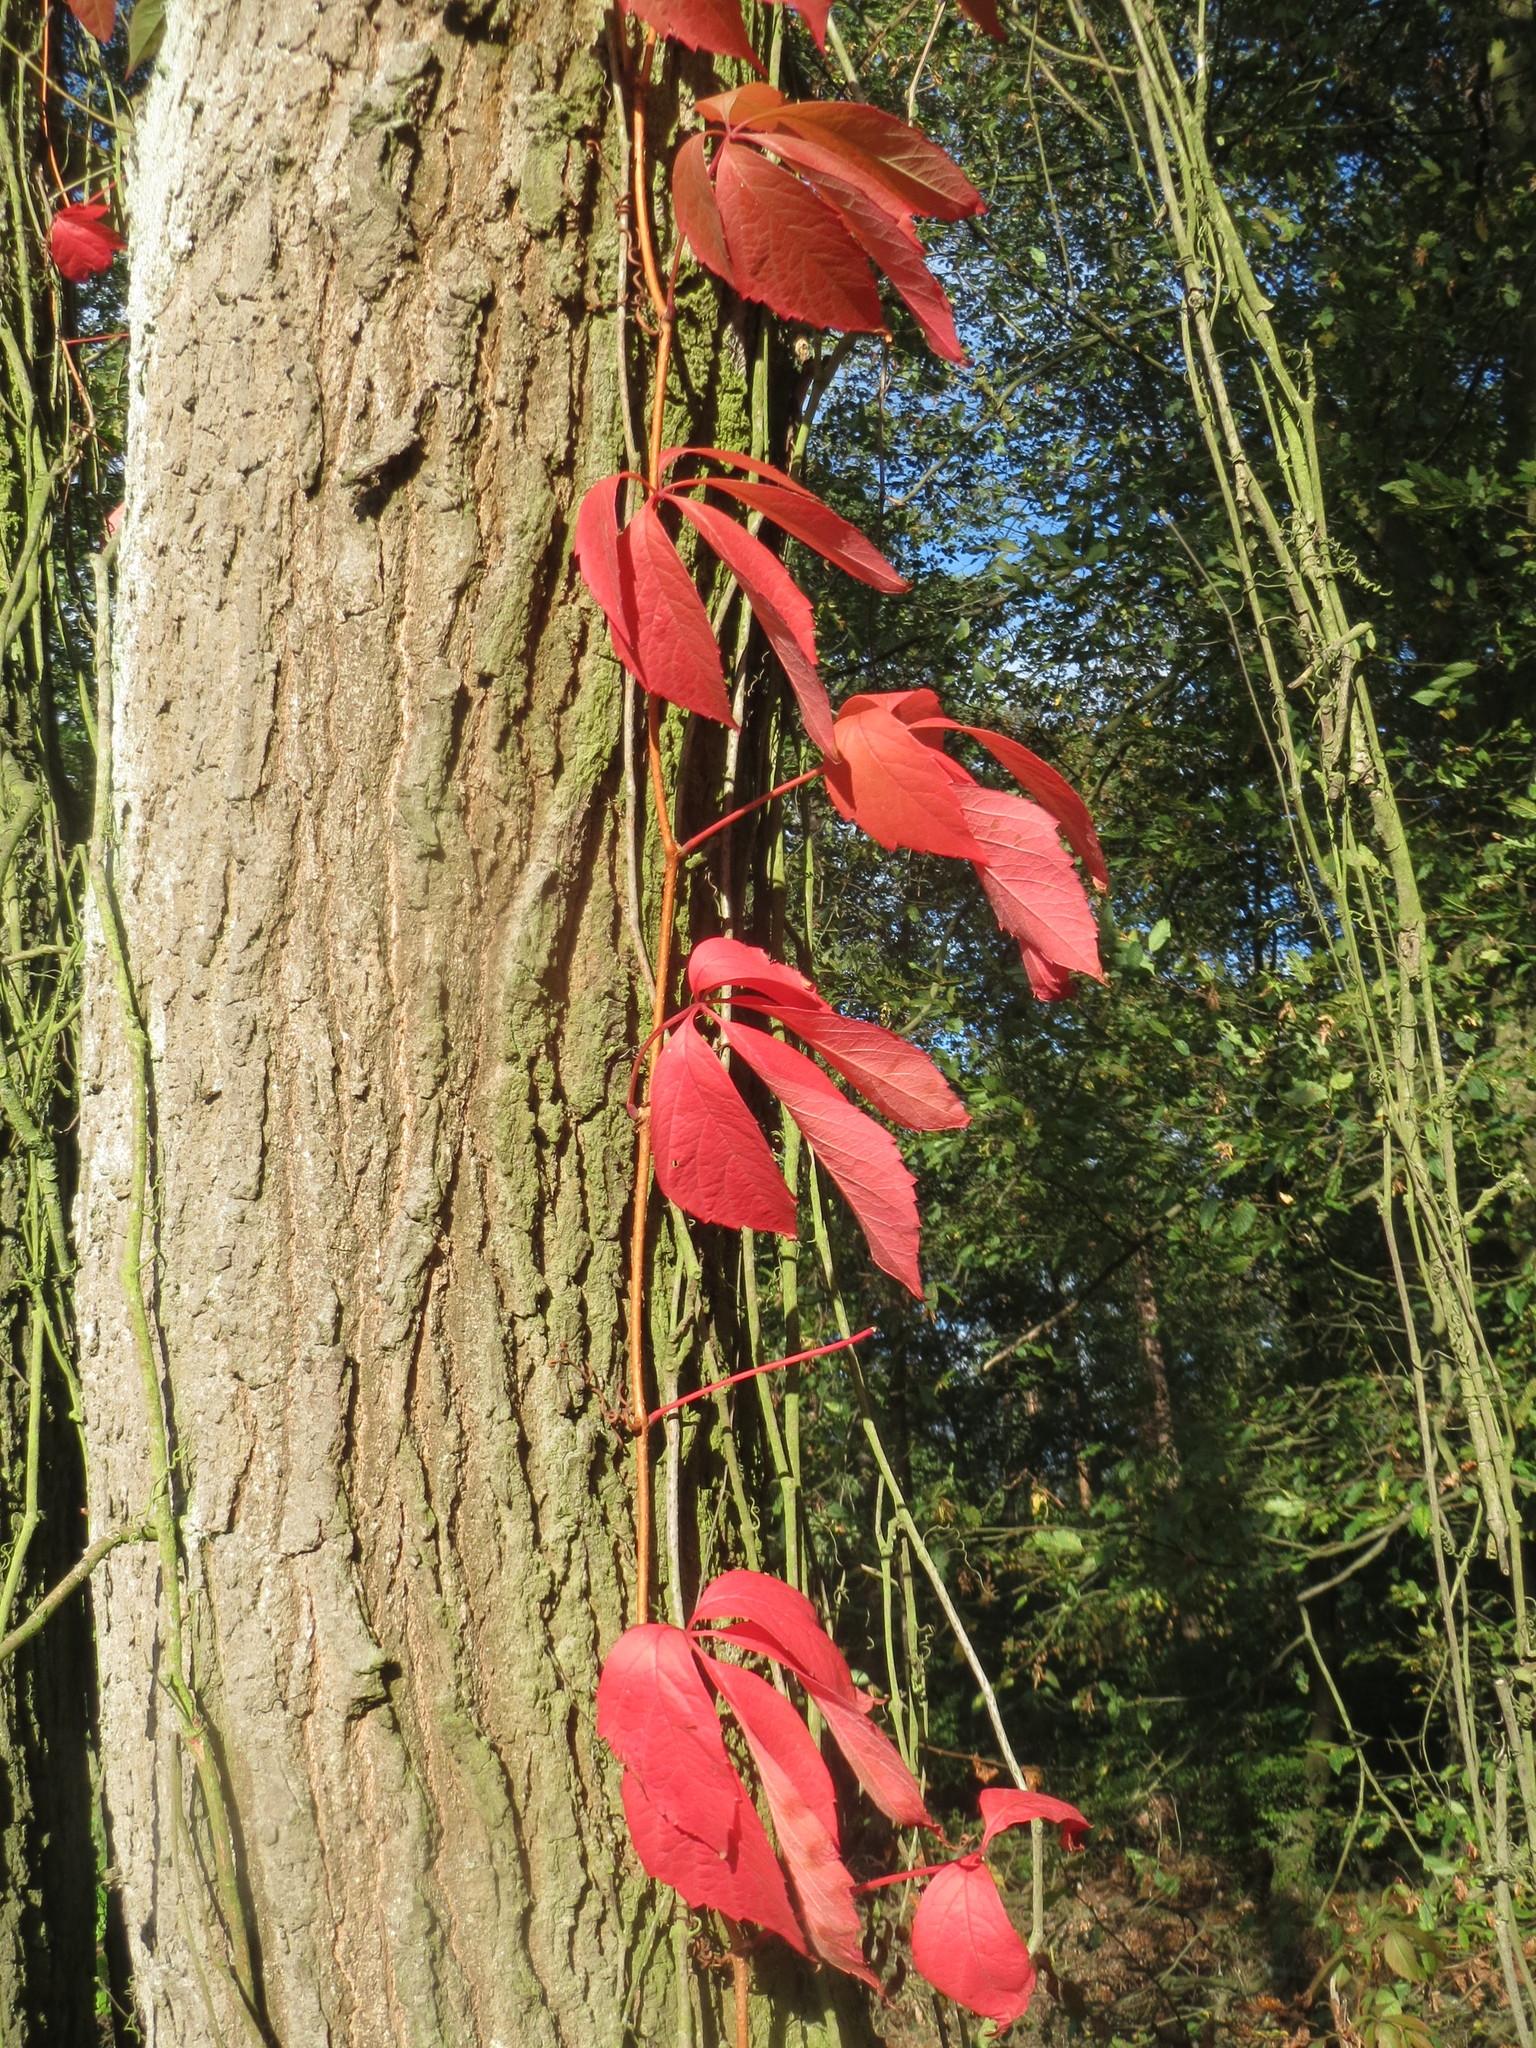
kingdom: Plantae
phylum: Tracheophyta
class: Magnoliopsida
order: Vitales
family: Vitaceae
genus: Parthenocissus
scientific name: Parthenocissus quinquefolia
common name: Virginia-creeper
